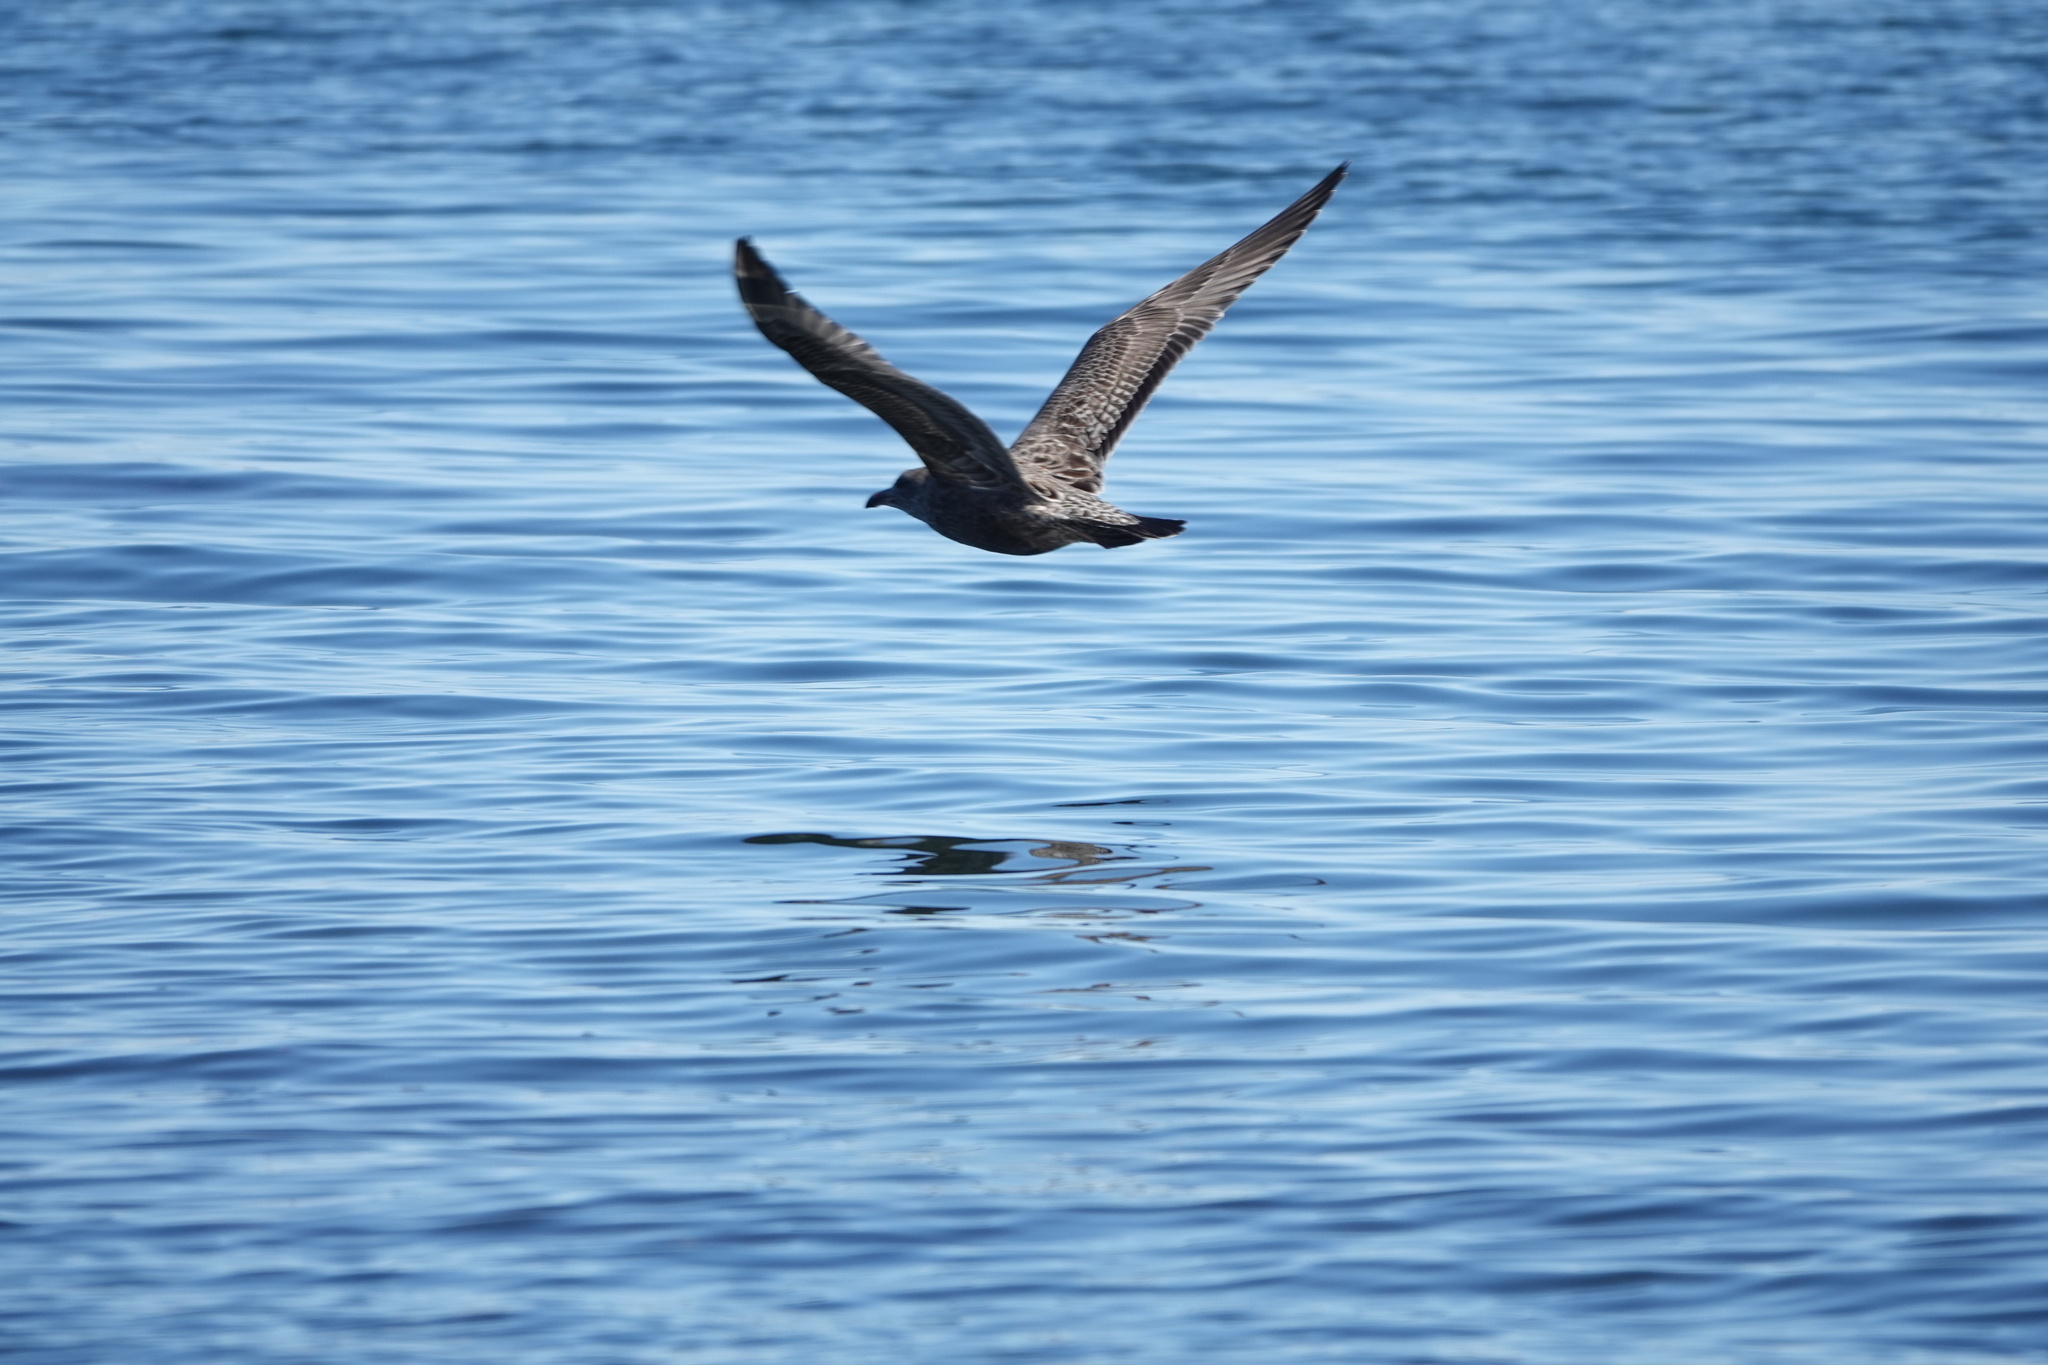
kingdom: Animalia
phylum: Chordata
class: Aves
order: Charadriiformes
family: Laridae
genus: Larus
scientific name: Larus argentatus
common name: Herring gull
